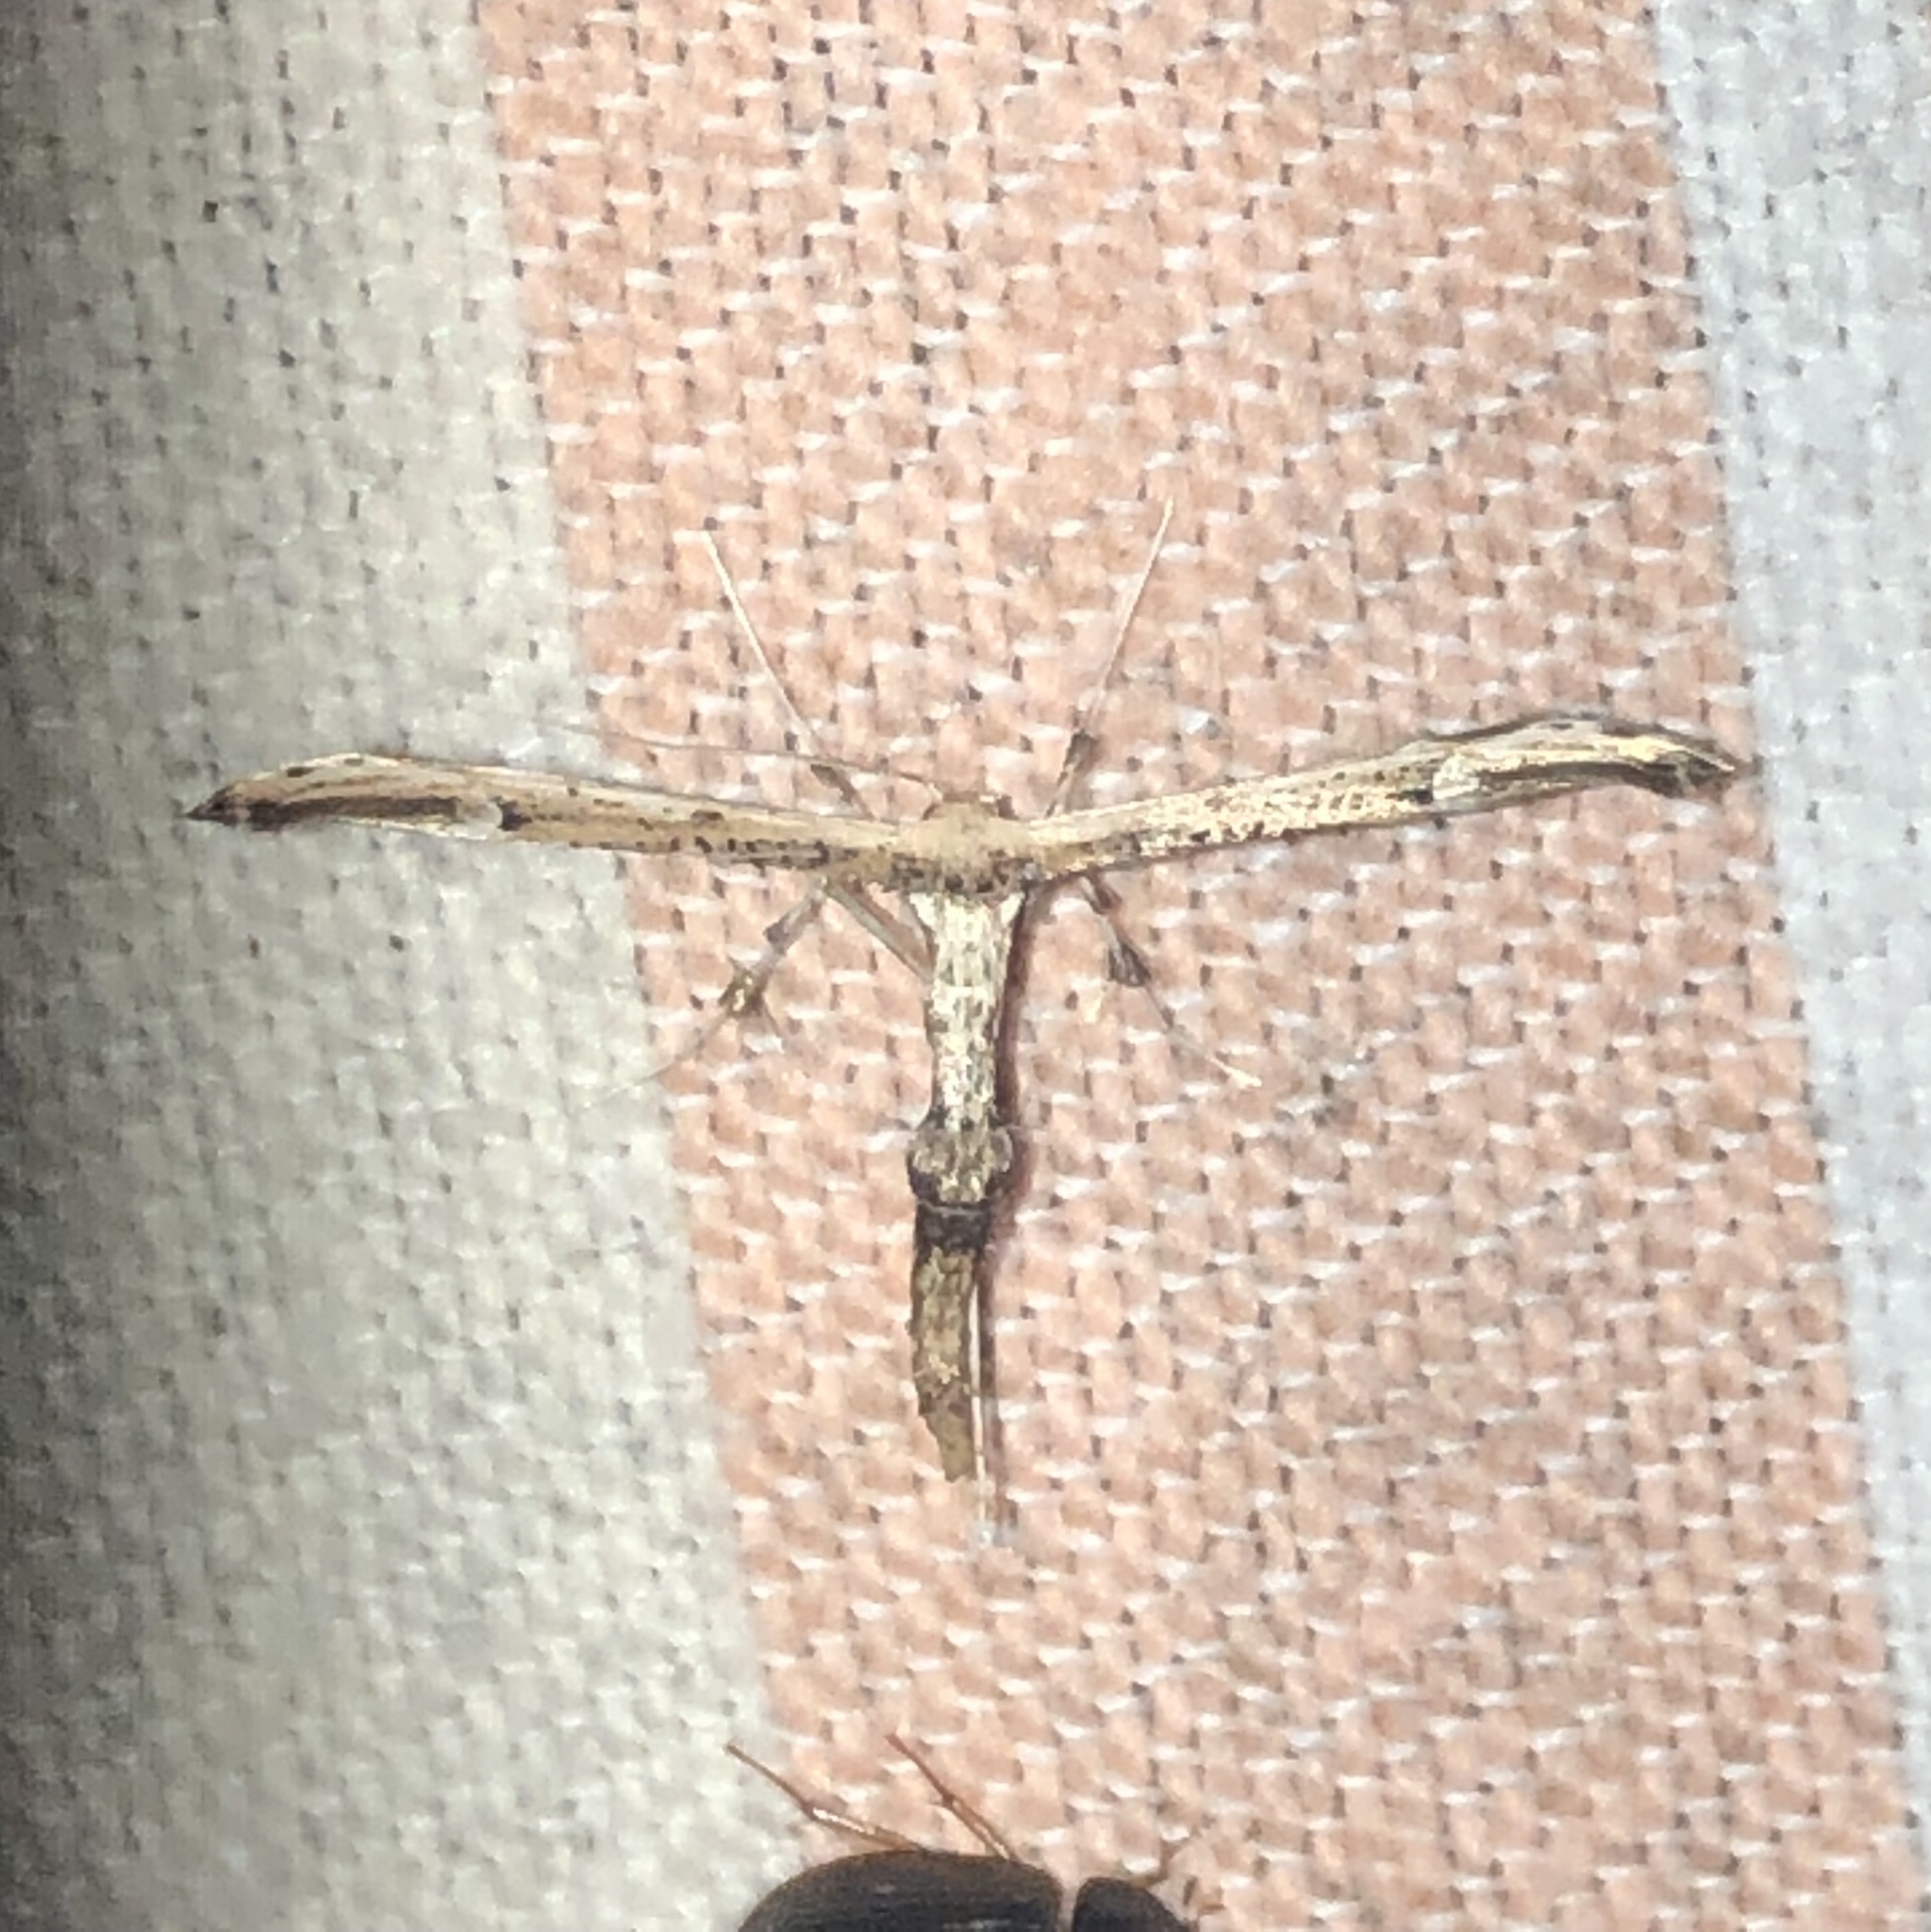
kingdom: Animalia
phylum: Arthropoda
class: Insecta
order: Lepidoptera
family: Pterophoridae
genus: Oidaematophorus
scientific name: Oidaematophorus eupatorii
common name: Eupatorium plume moth
